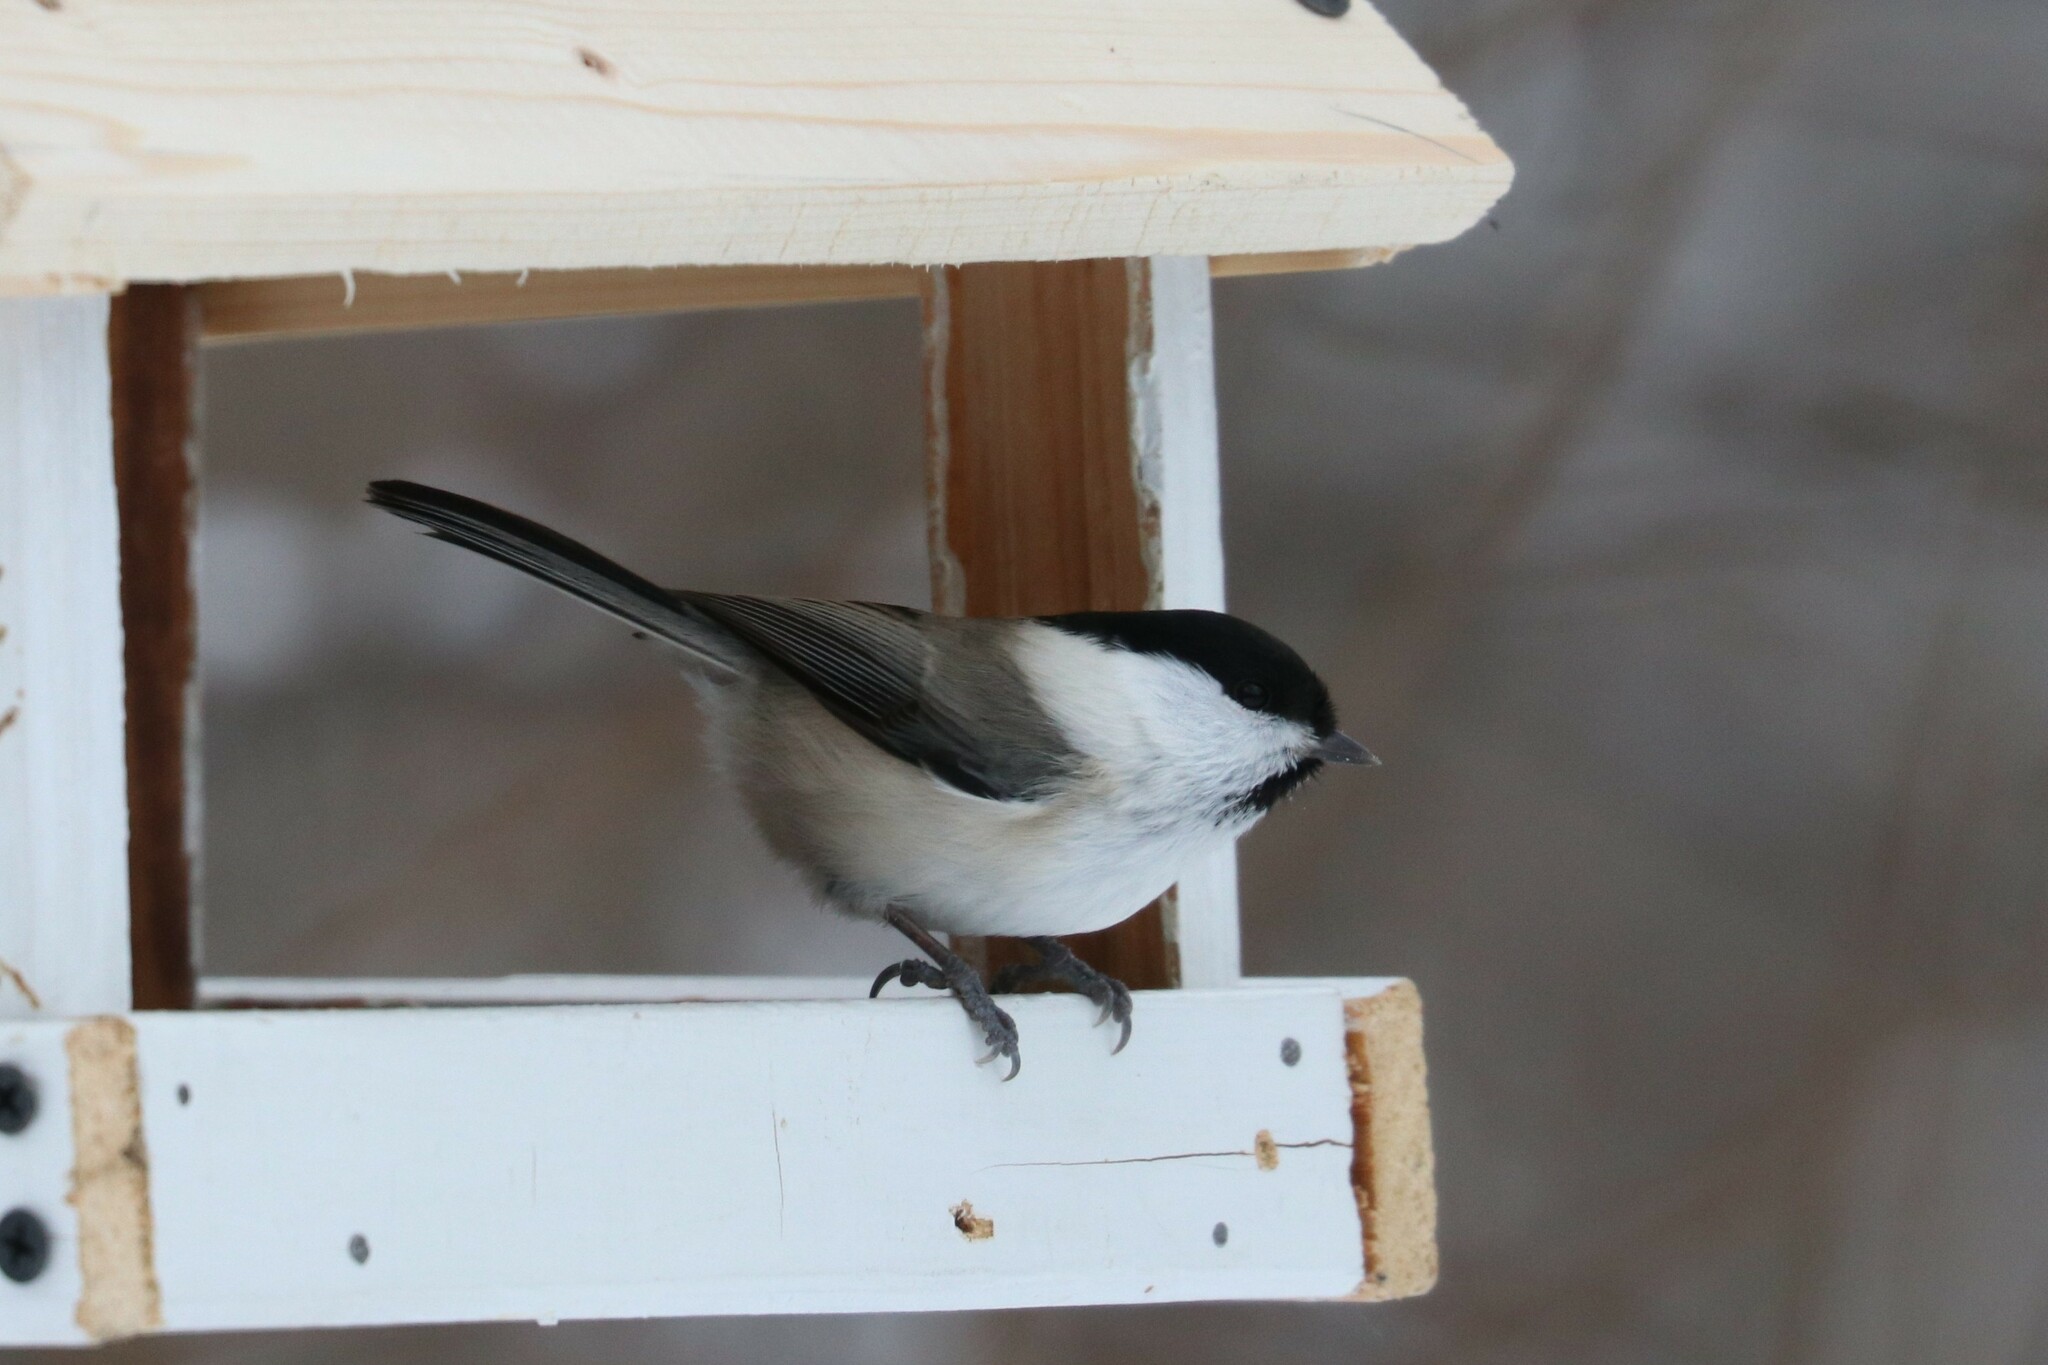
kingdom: Animalia
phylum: Chordata
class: Aves
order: Passeriformes
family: Paridae
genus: Poecile
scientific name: Poecile montanus
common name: Willow tit
